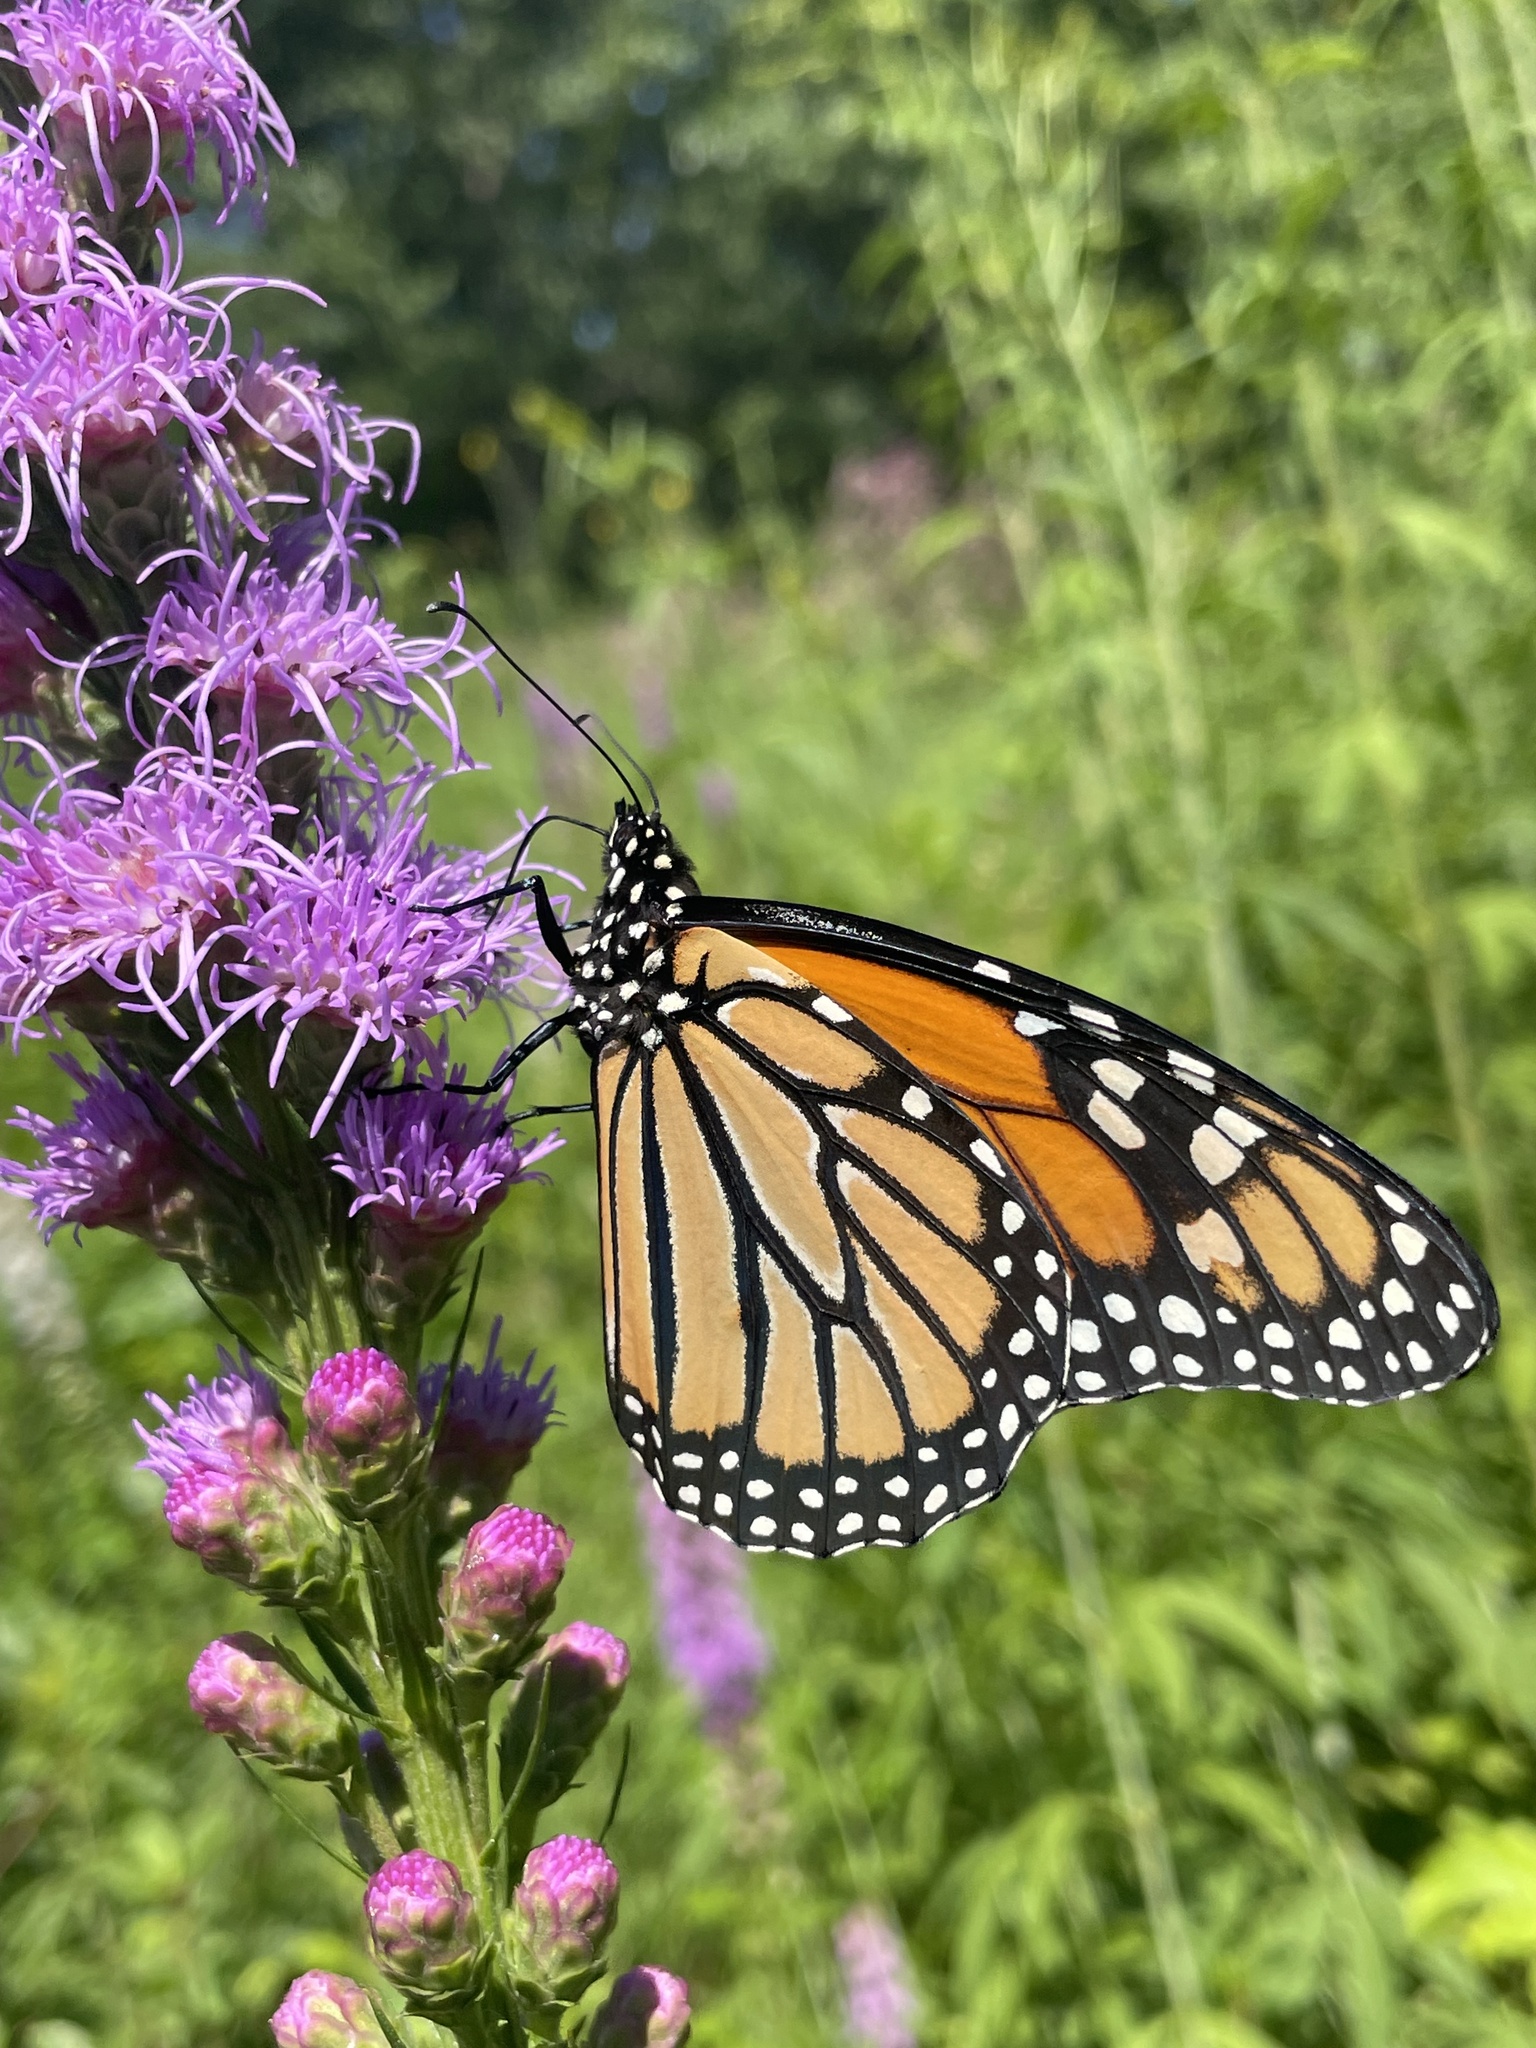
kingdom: Animalia
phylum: Arthropoda
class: Insecta
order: Lepidoptera
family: Nymphalidae
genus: Danaus
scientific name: Danaus plexippus
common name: Monarch
